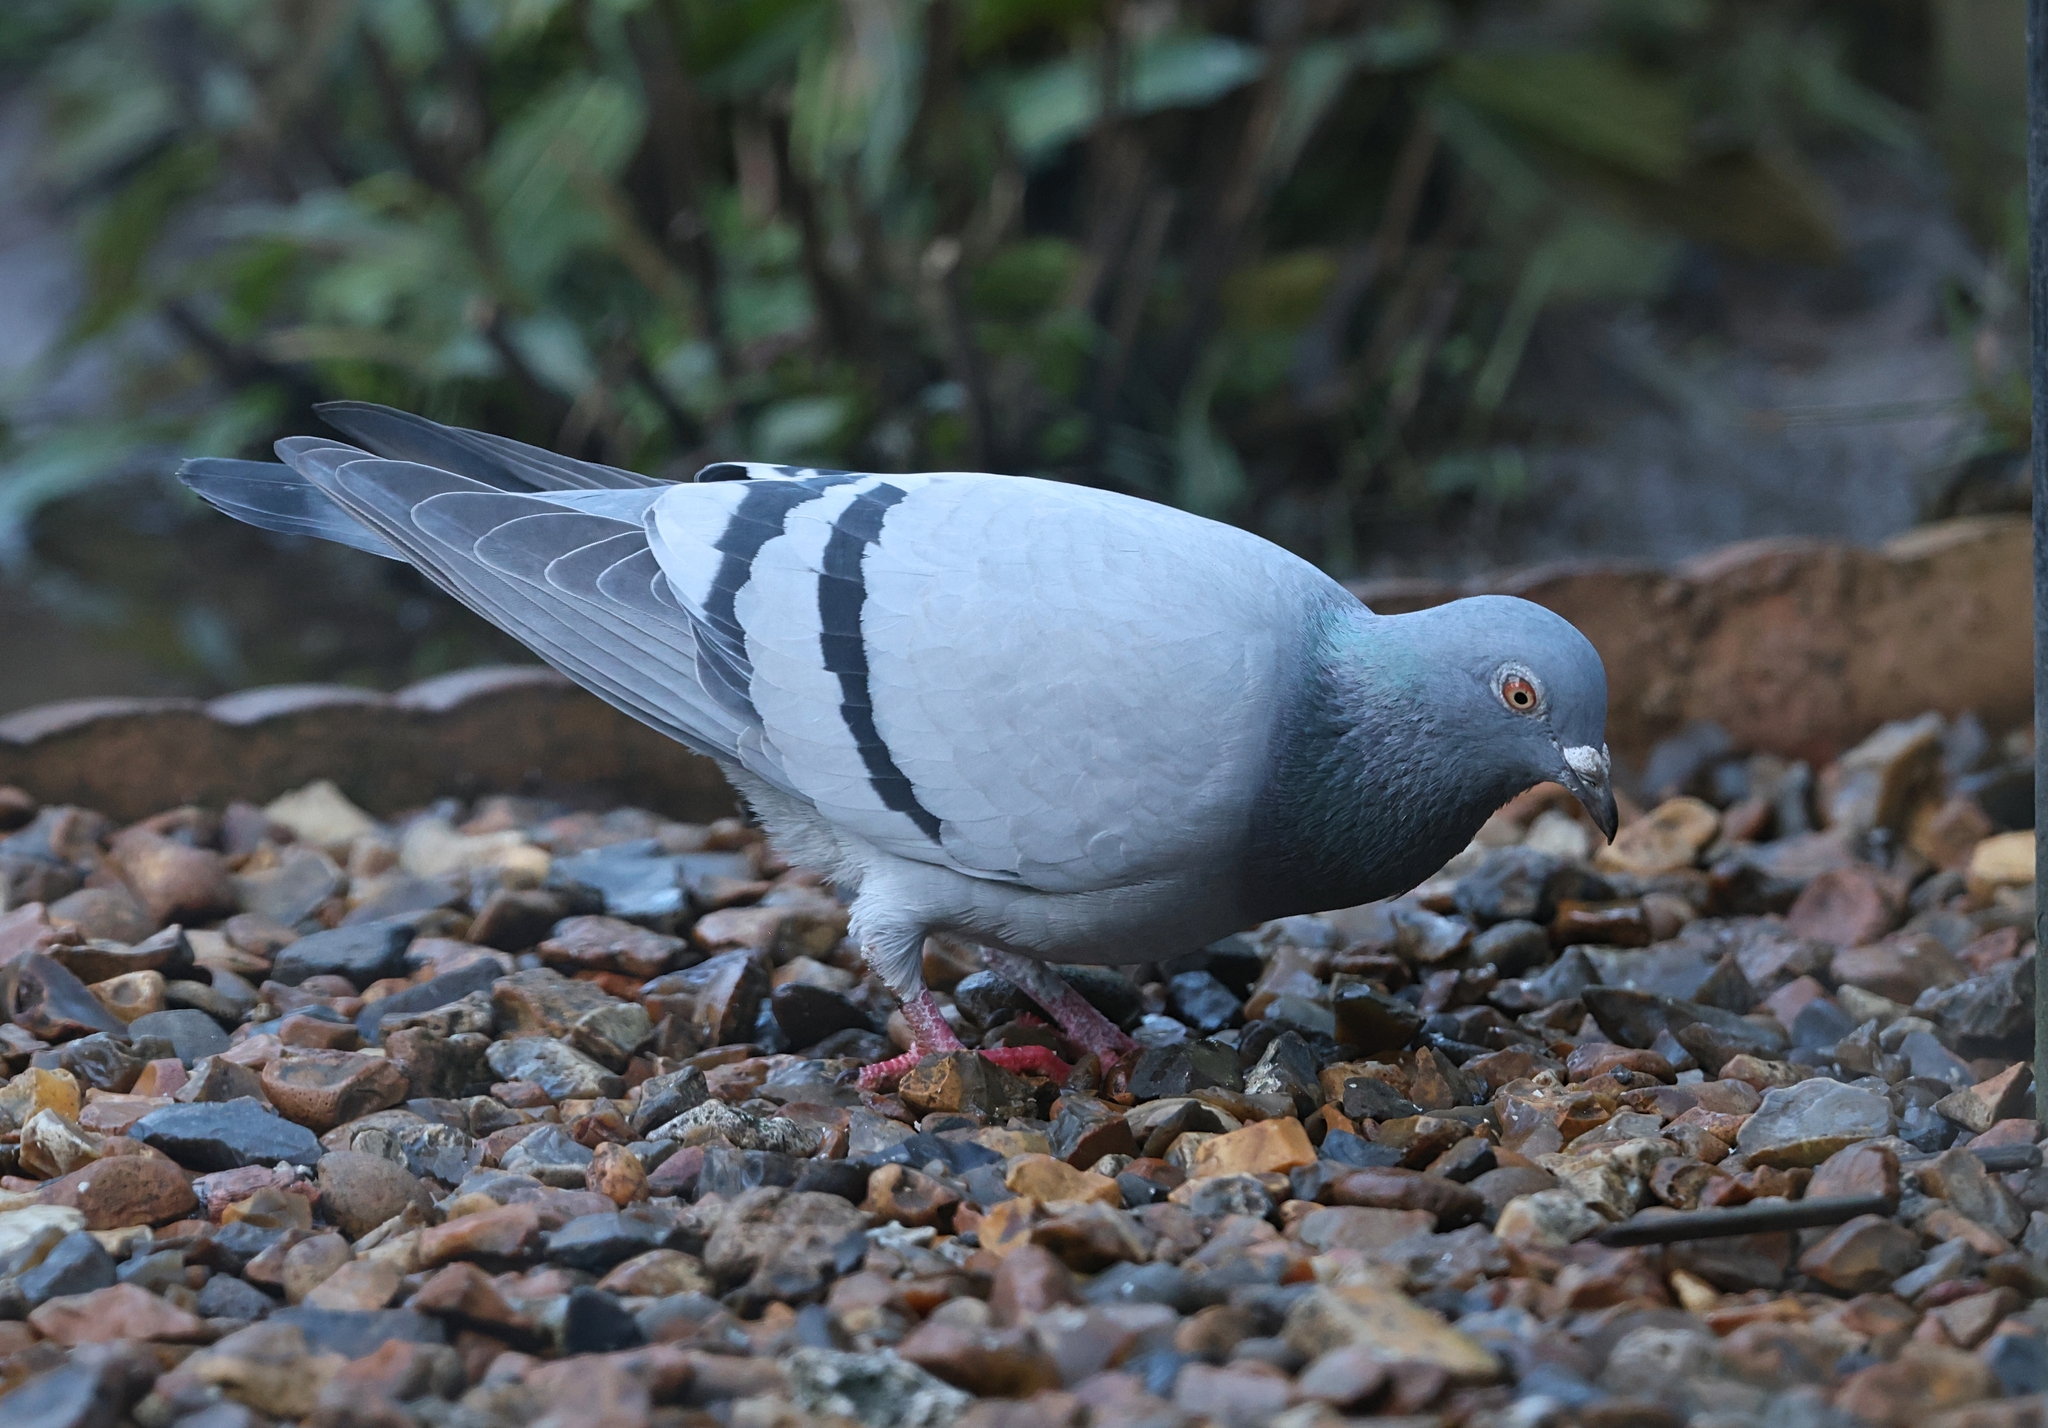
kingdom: Animalia
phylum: Chordata
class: Aves
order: Columbiformes
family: Columbidae
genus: Columba
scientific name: Columba livia
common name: Rock pigeon
